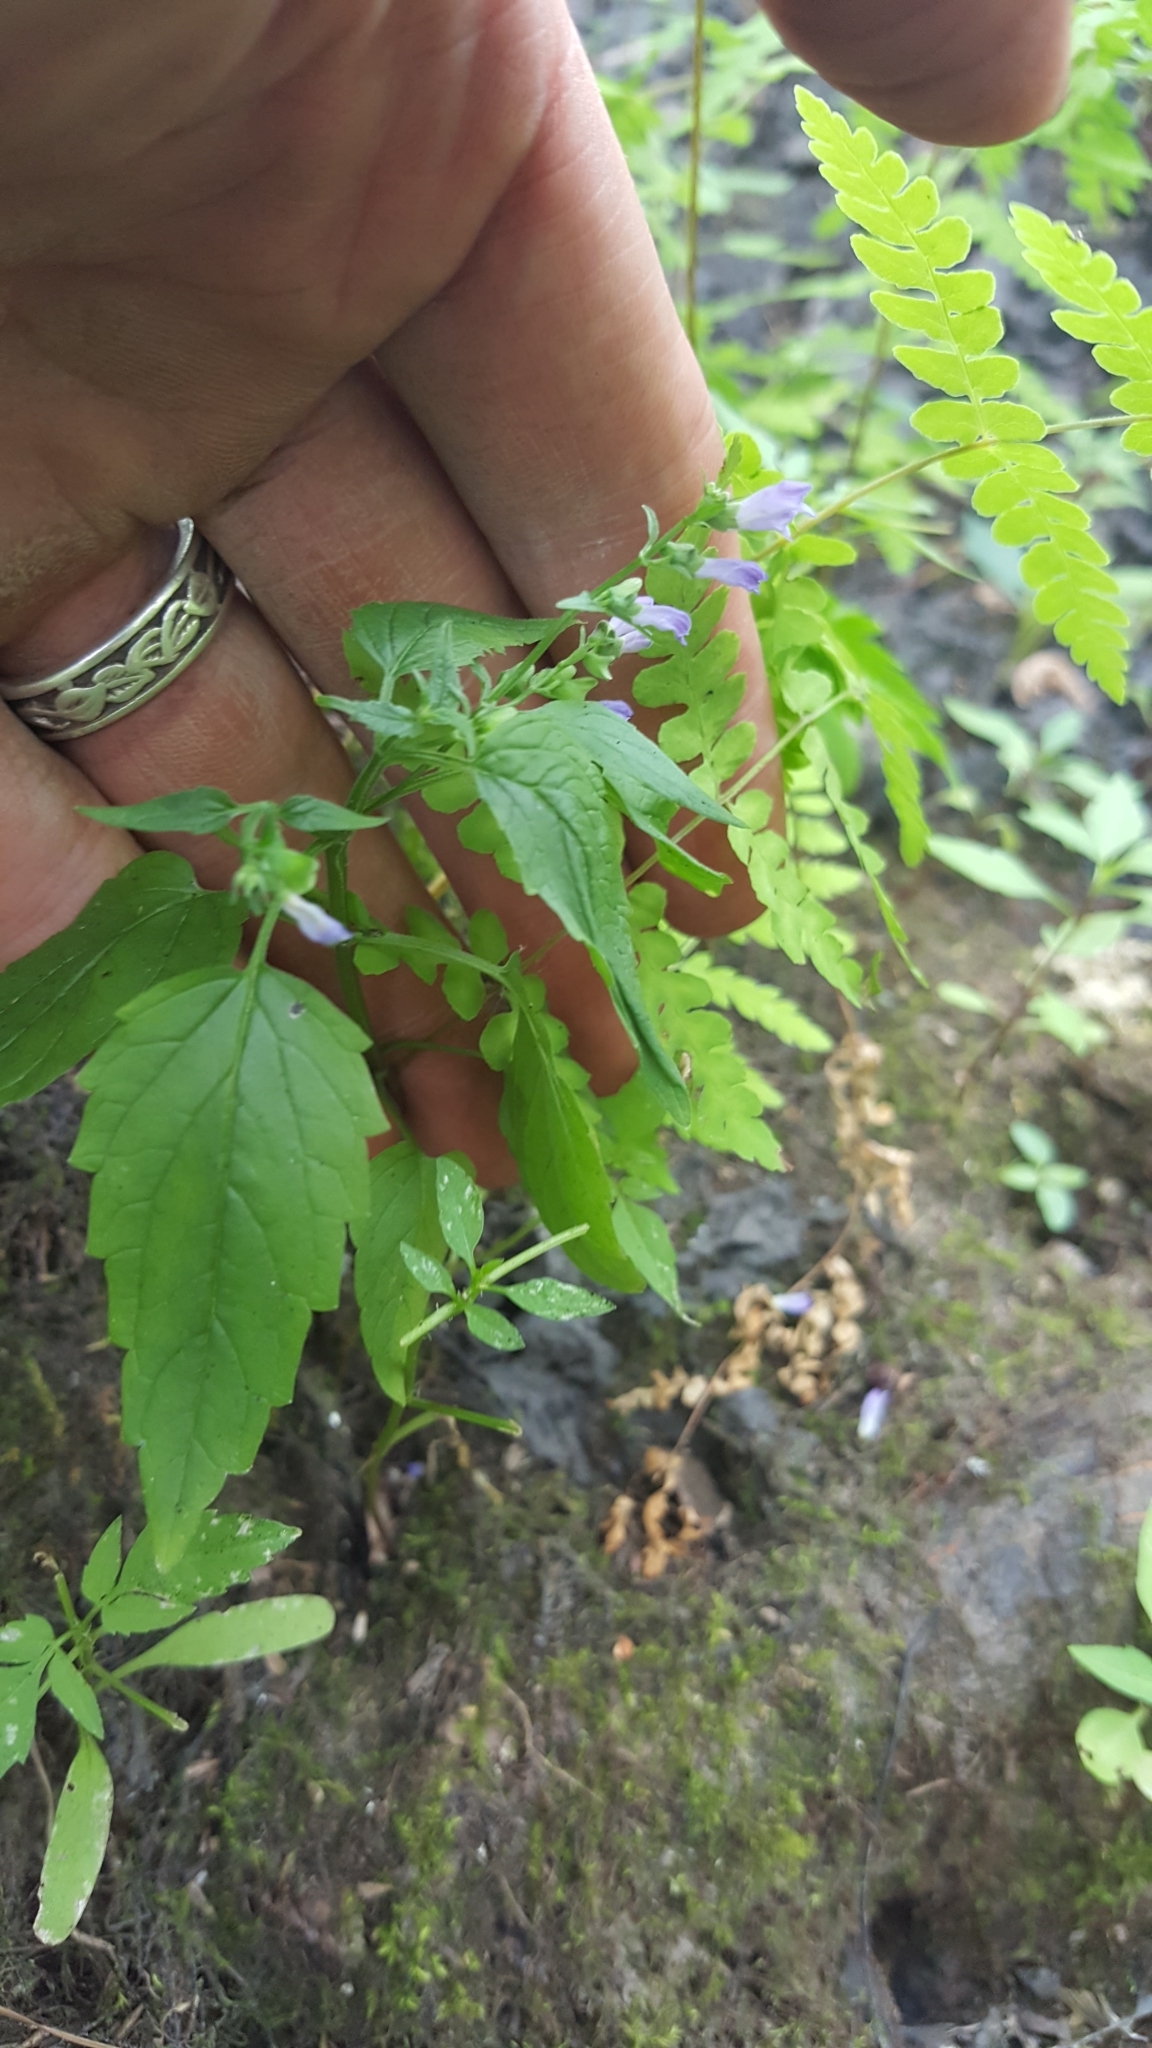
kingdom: Plantae
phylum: Tracheophyta
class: Magnoliopsida
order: Lamiales
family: Lamiaceae
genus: Scutellaria
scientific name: Scutellaria lateriflora
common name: Blue skullcap
